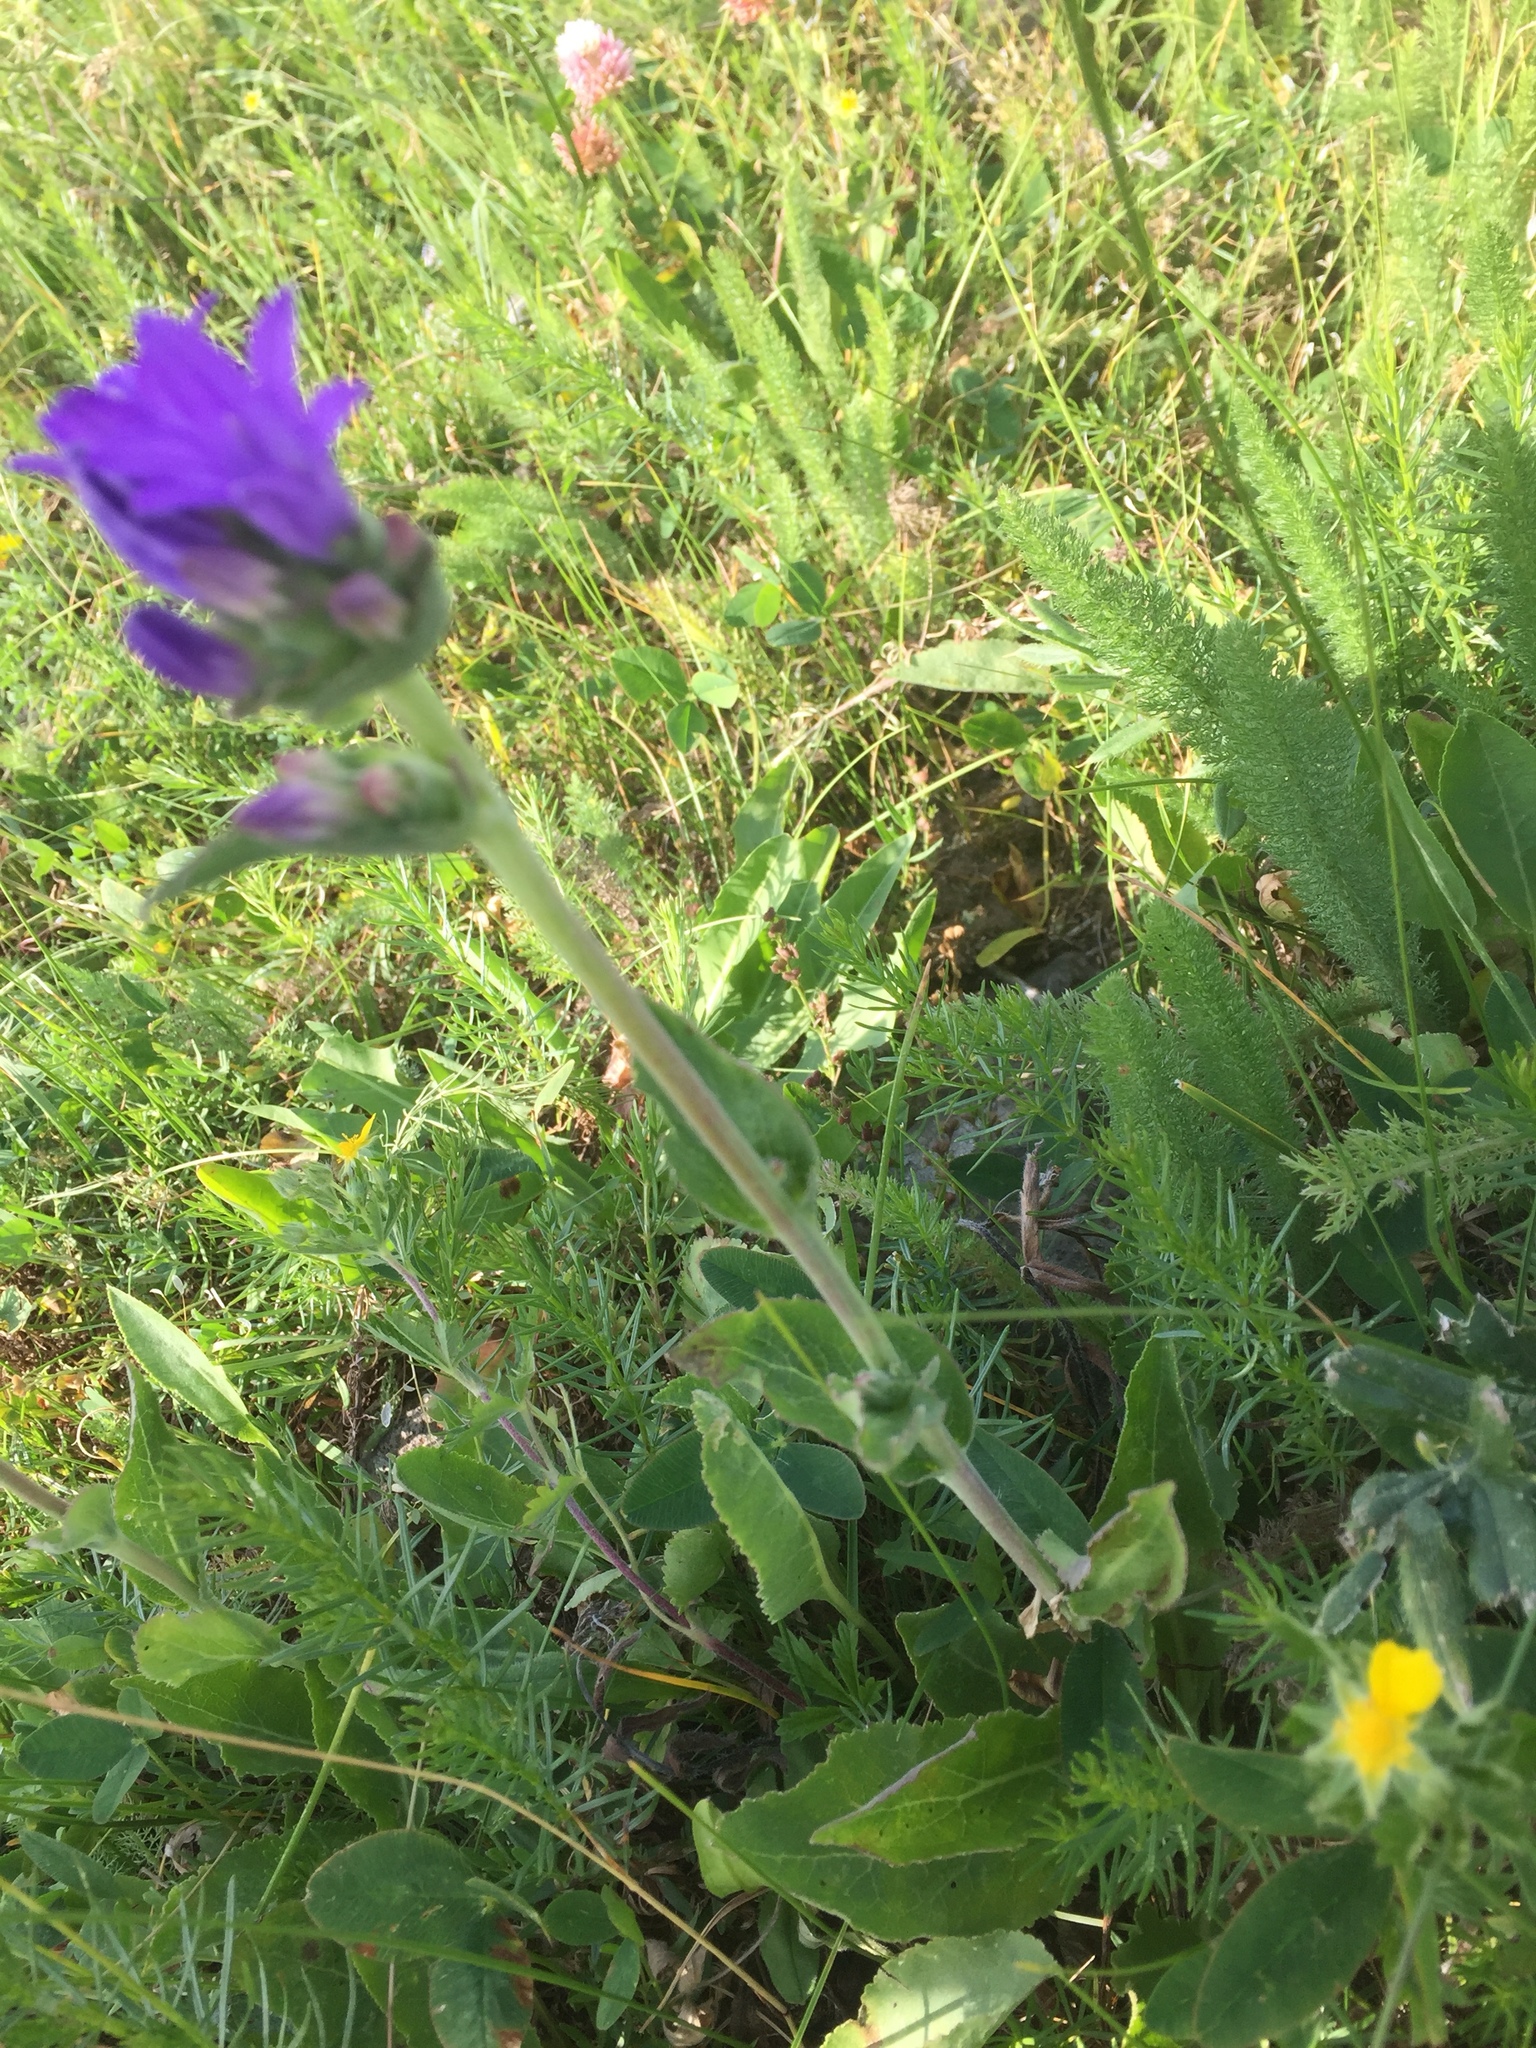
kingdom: Plantae
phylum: Tracheophyta
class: Magnoliopsida
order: Asterales
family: Campanulaceae
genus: Campanula
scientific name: Campanula glomerata
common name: Clustered bellflower
